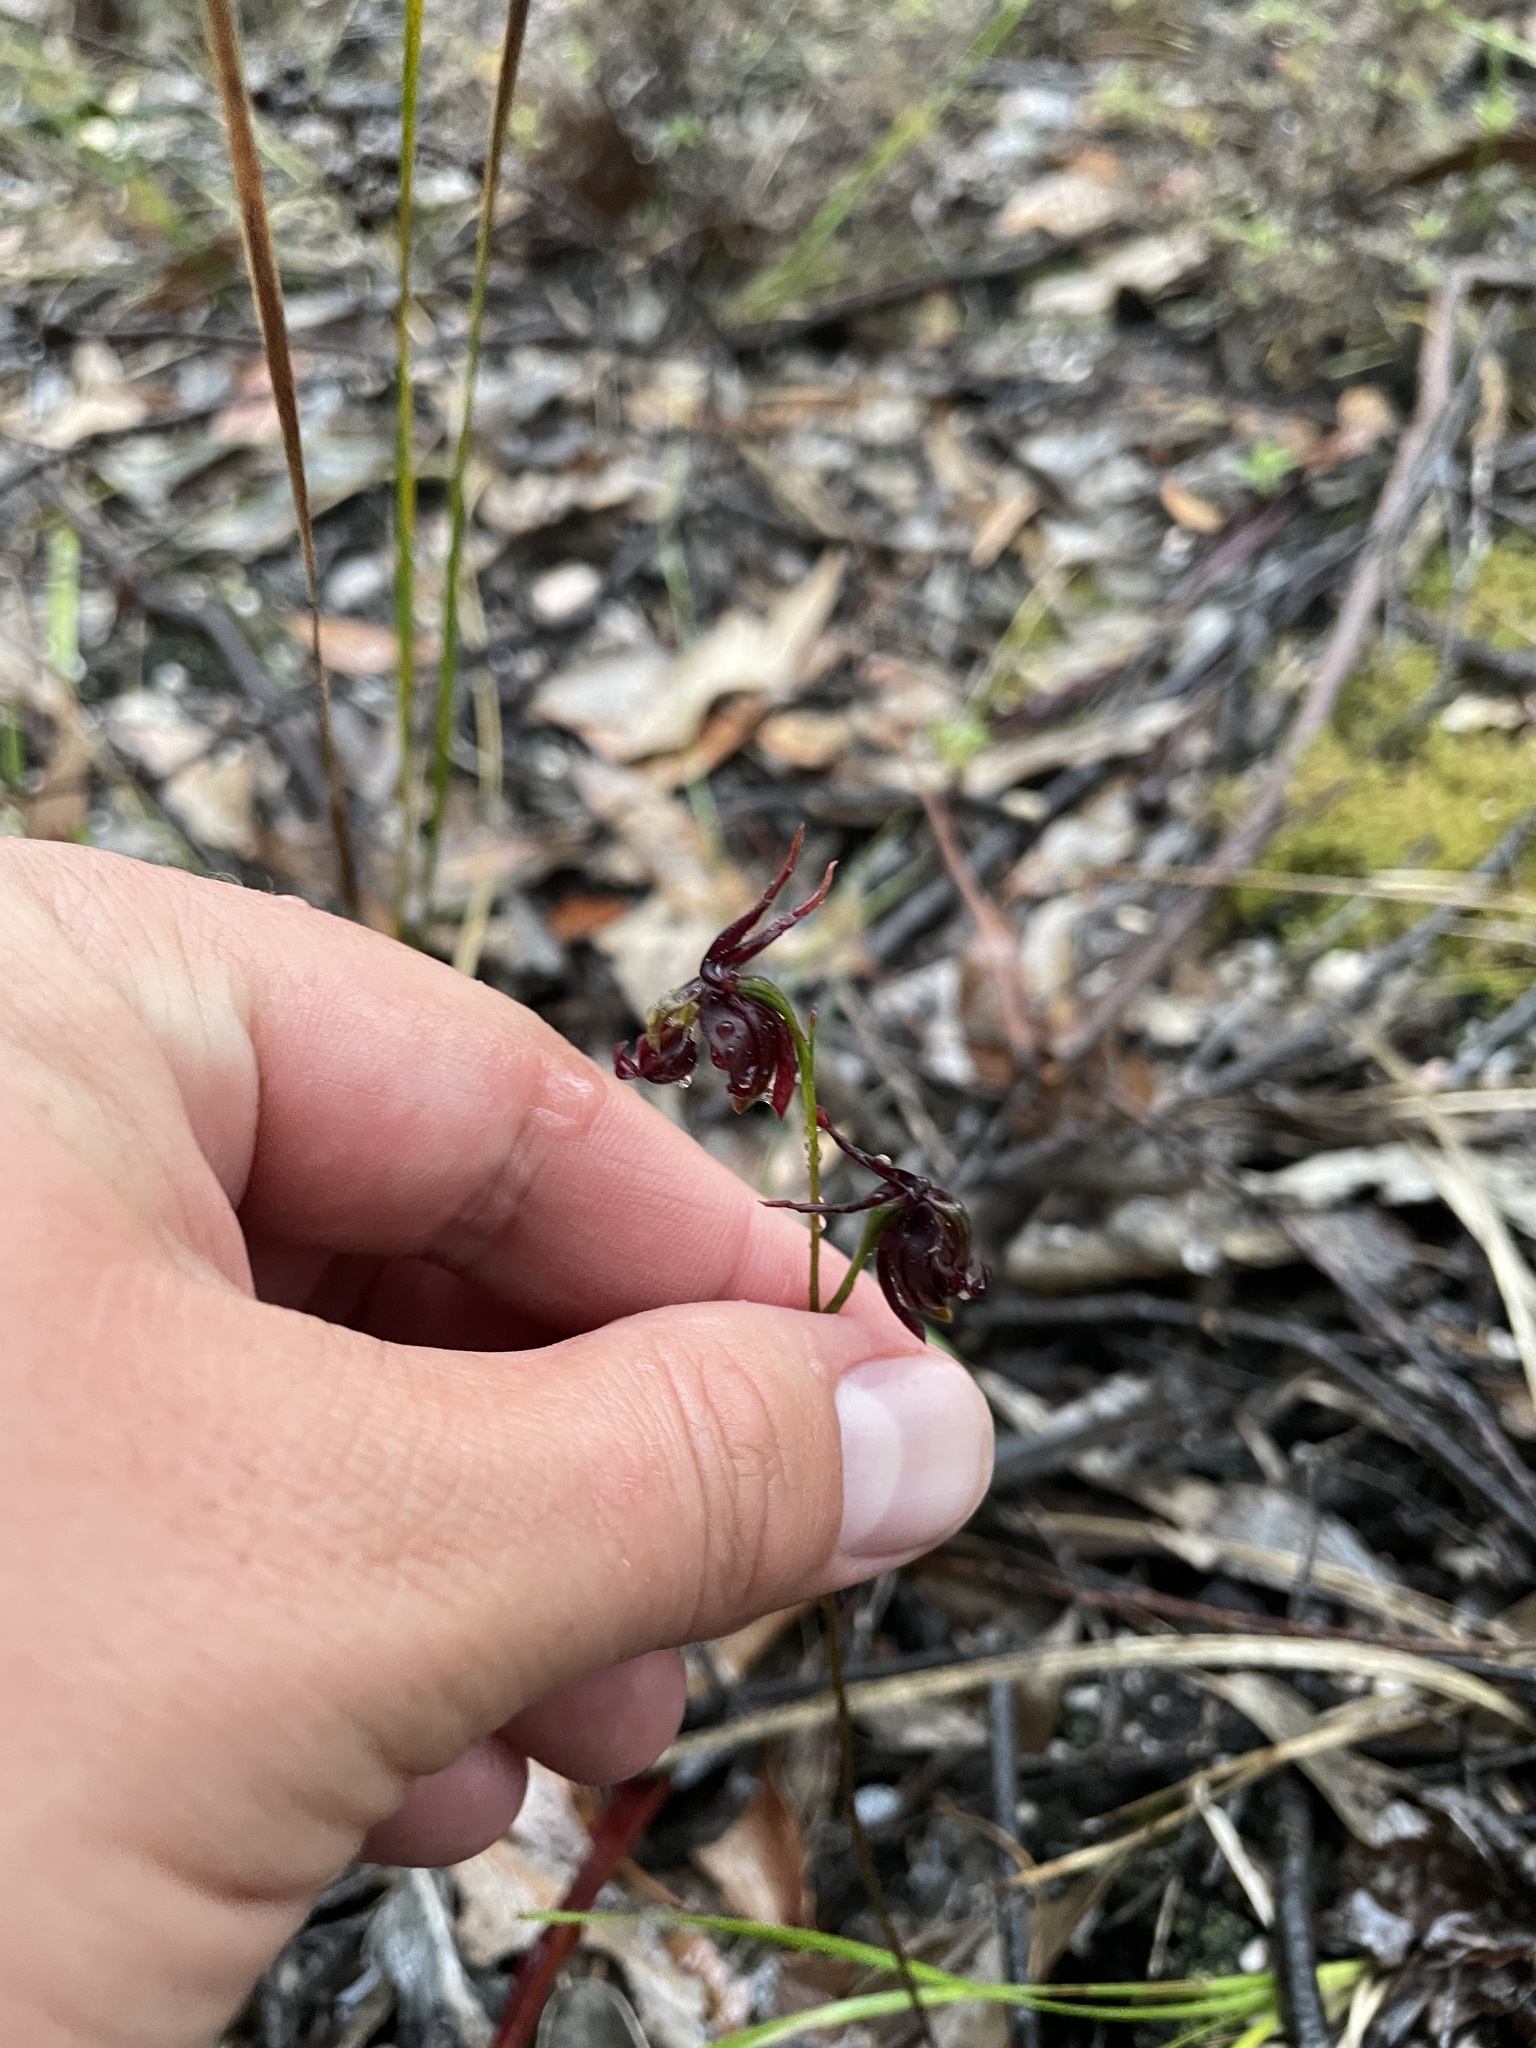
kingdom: Plantae
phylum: Tracheophyta
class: Liliopsida
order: Asparagales
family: Orchidaceae
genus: Caleana
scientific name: Caleana major
